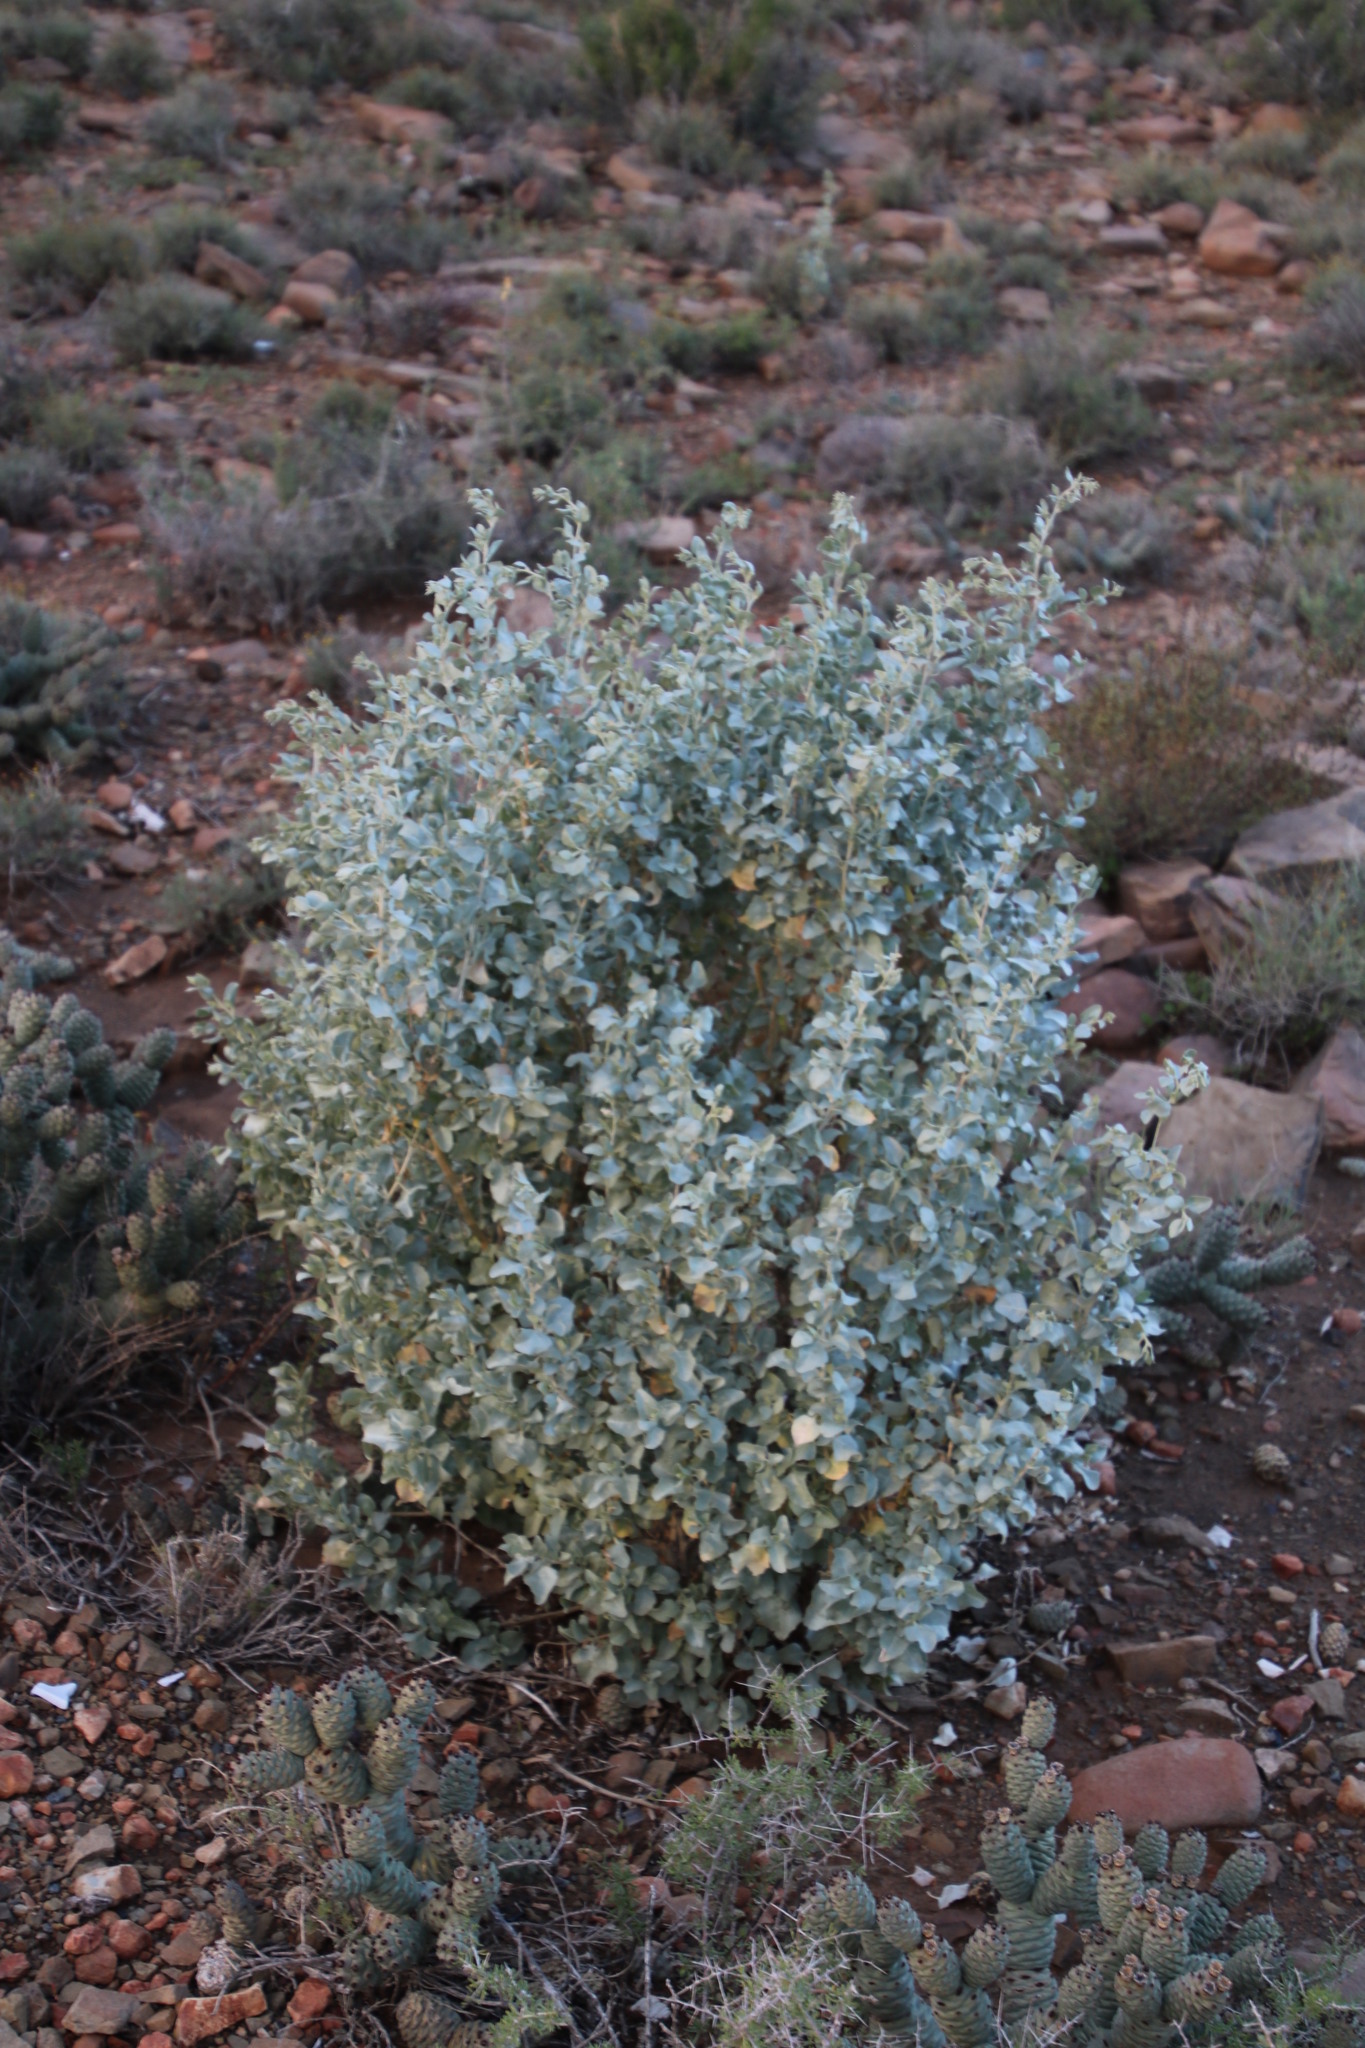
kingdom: Plantae
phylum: Tracheophyta
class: Magnoliopsida
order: Caryophyllales
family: Amaranthaceae
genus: Atriplex
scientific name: Atriplex nummularia
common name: Bluegreen saltbush
